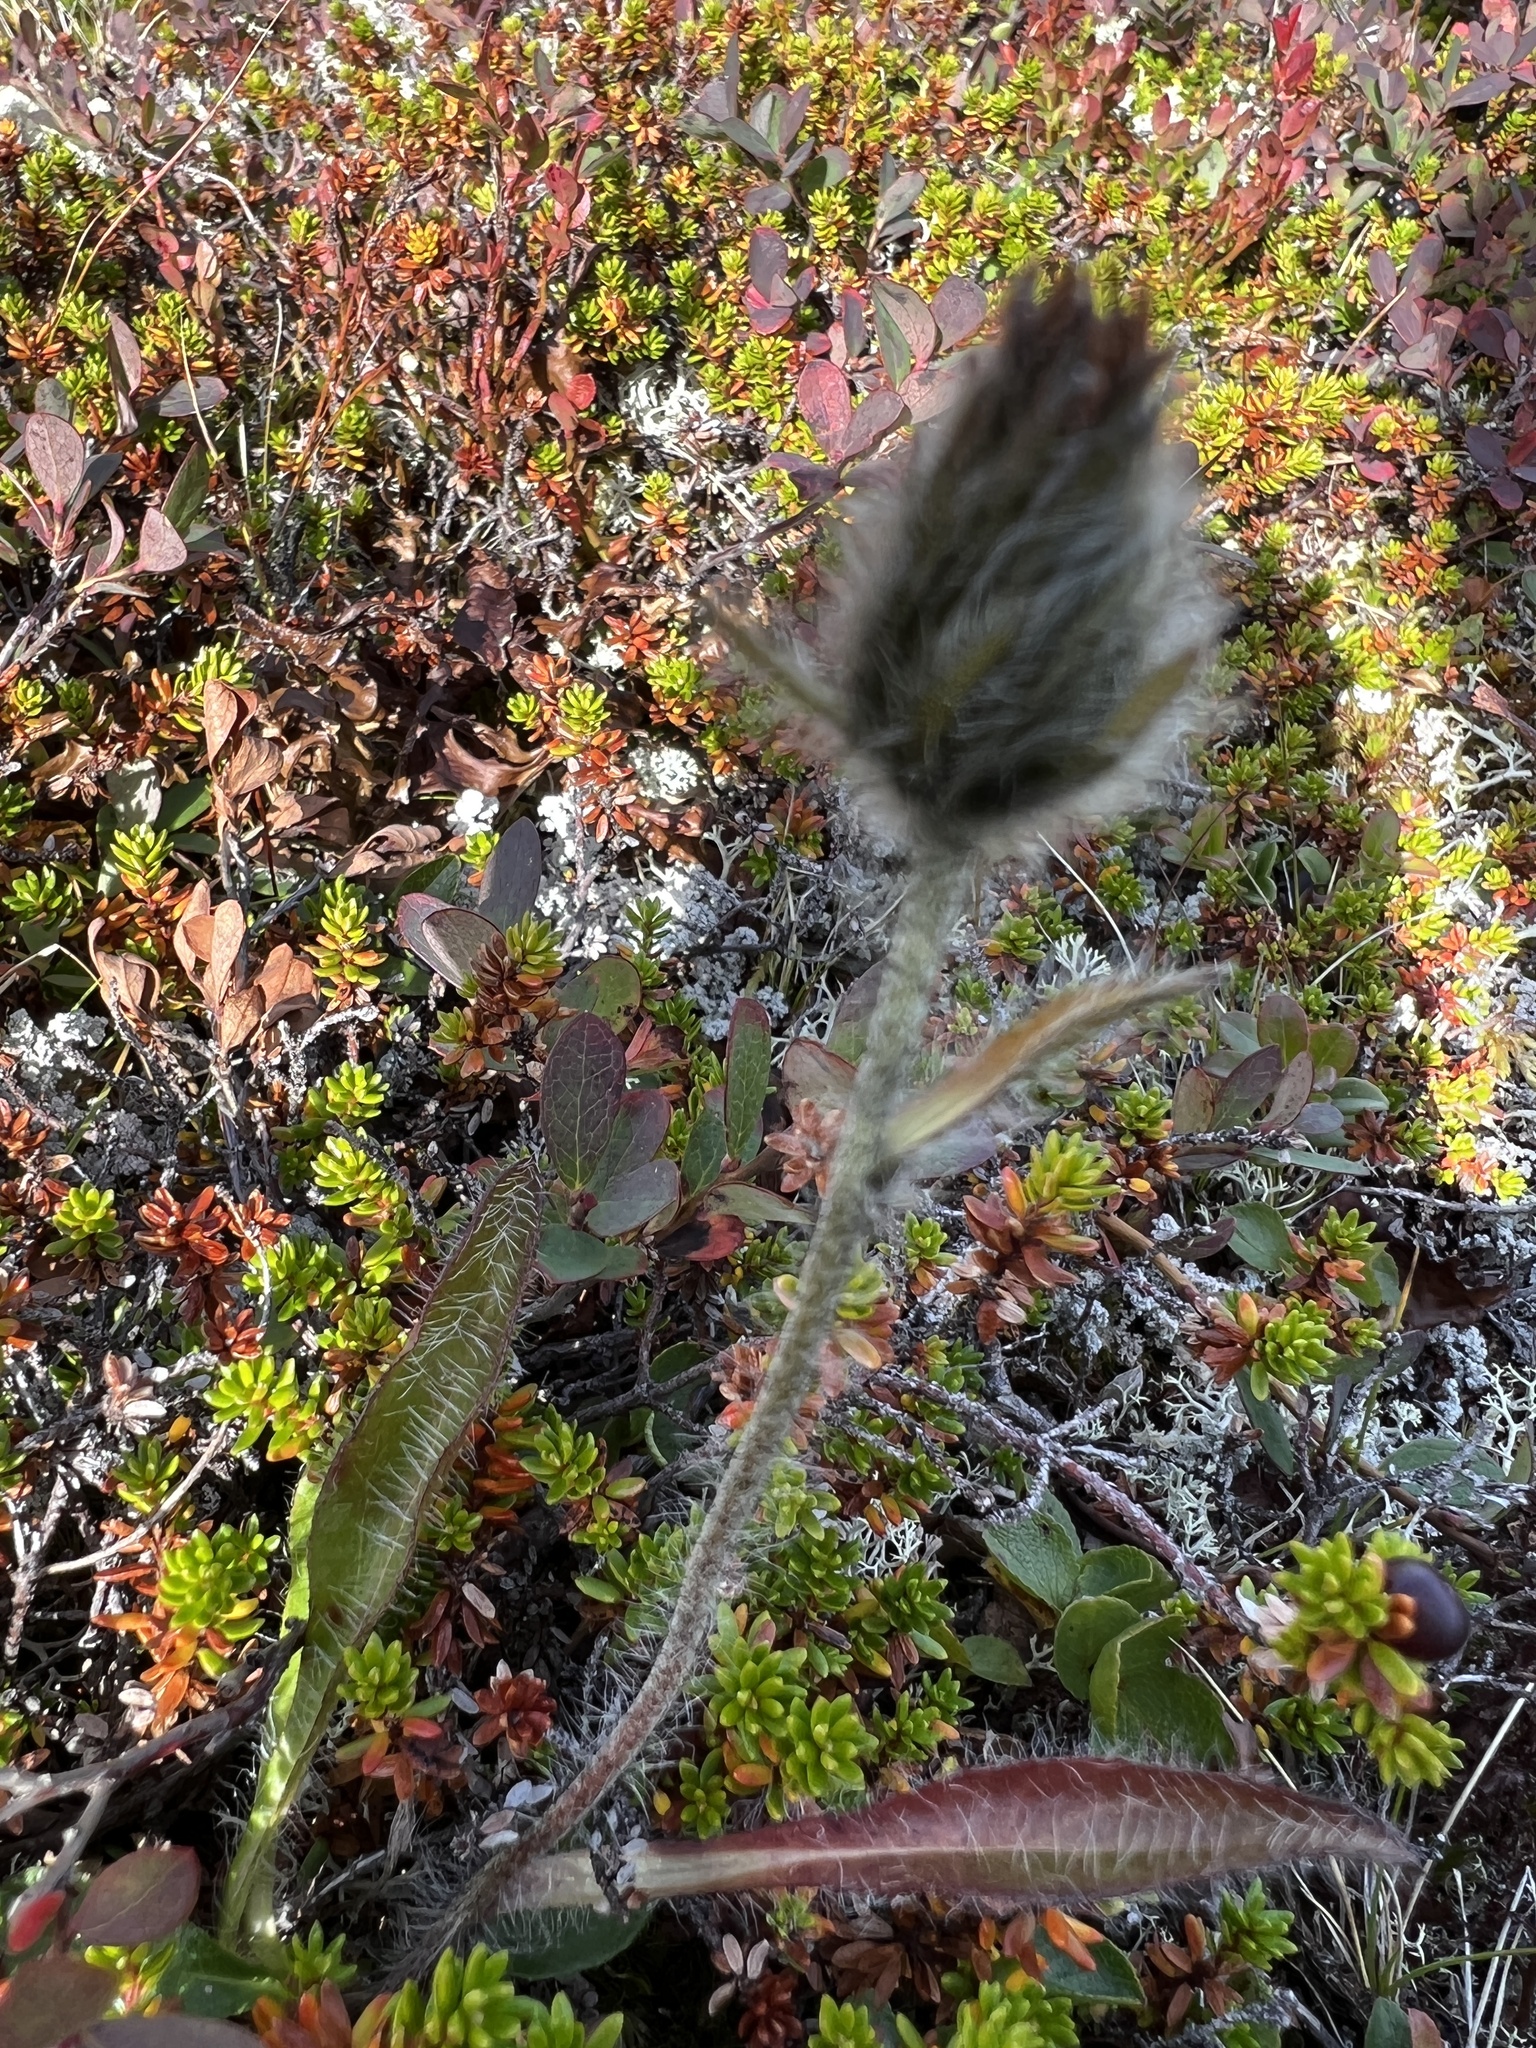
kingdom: Plantae
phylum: Tracheophyta
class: Magnoliopsida
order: Asterales
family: Asteraceae
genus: Hieracium
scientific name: Hieracium alpinum
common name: Alpine hawkweed
